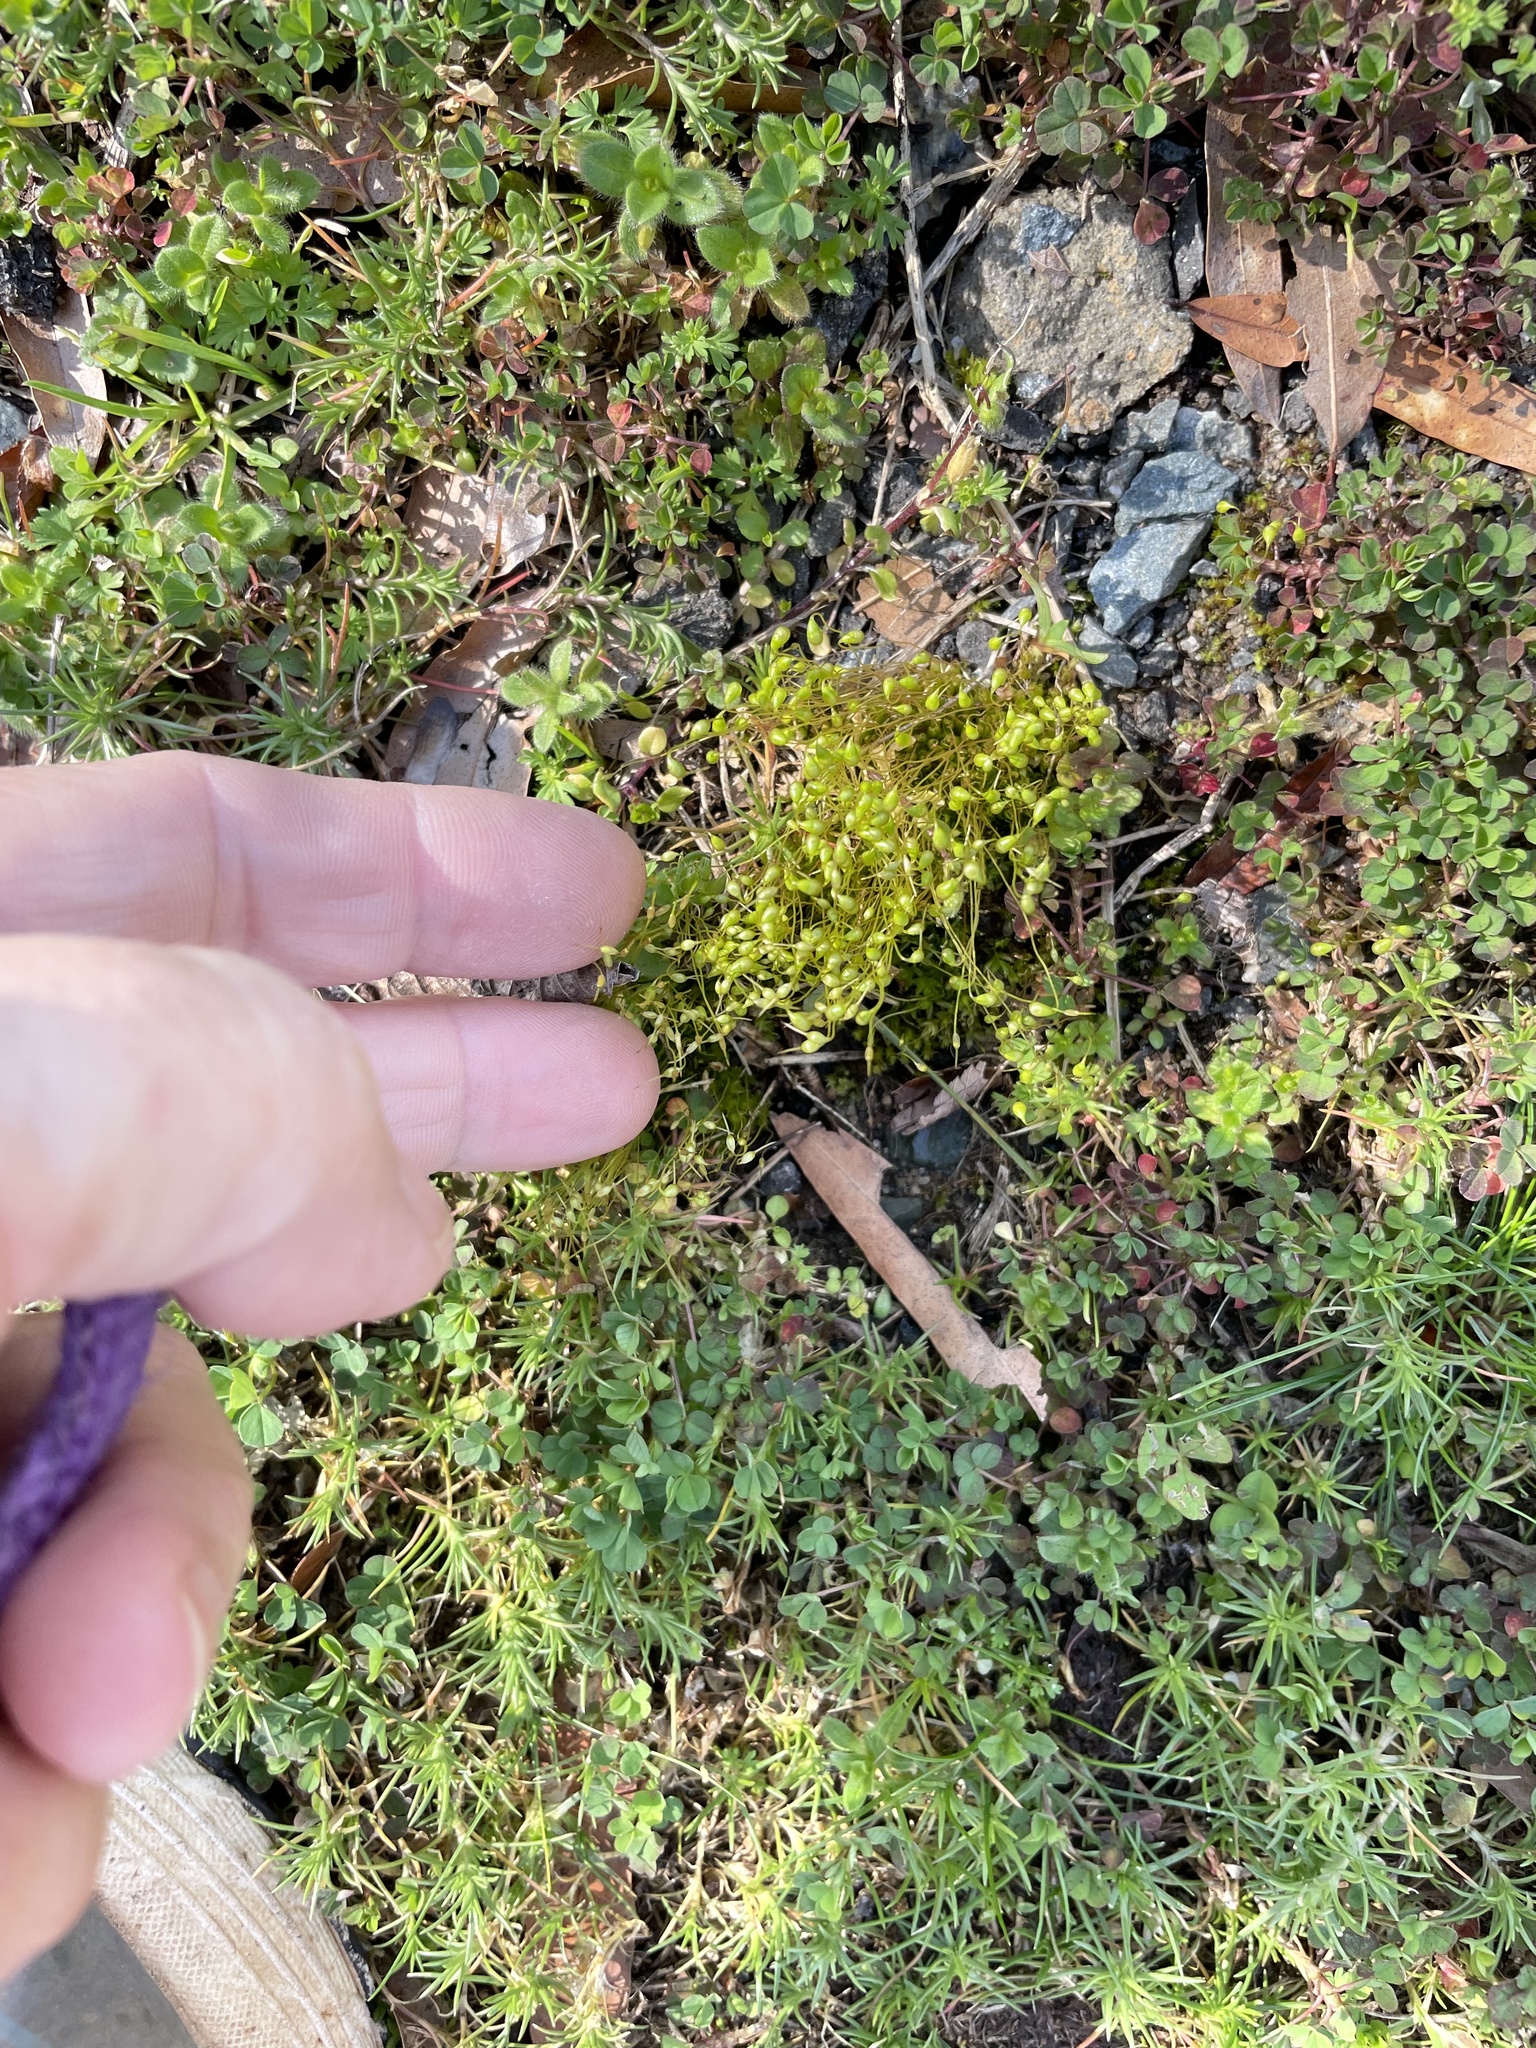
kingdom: Plantae
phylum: Bryophyta
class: Bryopsida
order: Funariales
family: Funariaceae
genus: Funaria
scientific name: Funaria hygrometrica
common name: Common cord moss
